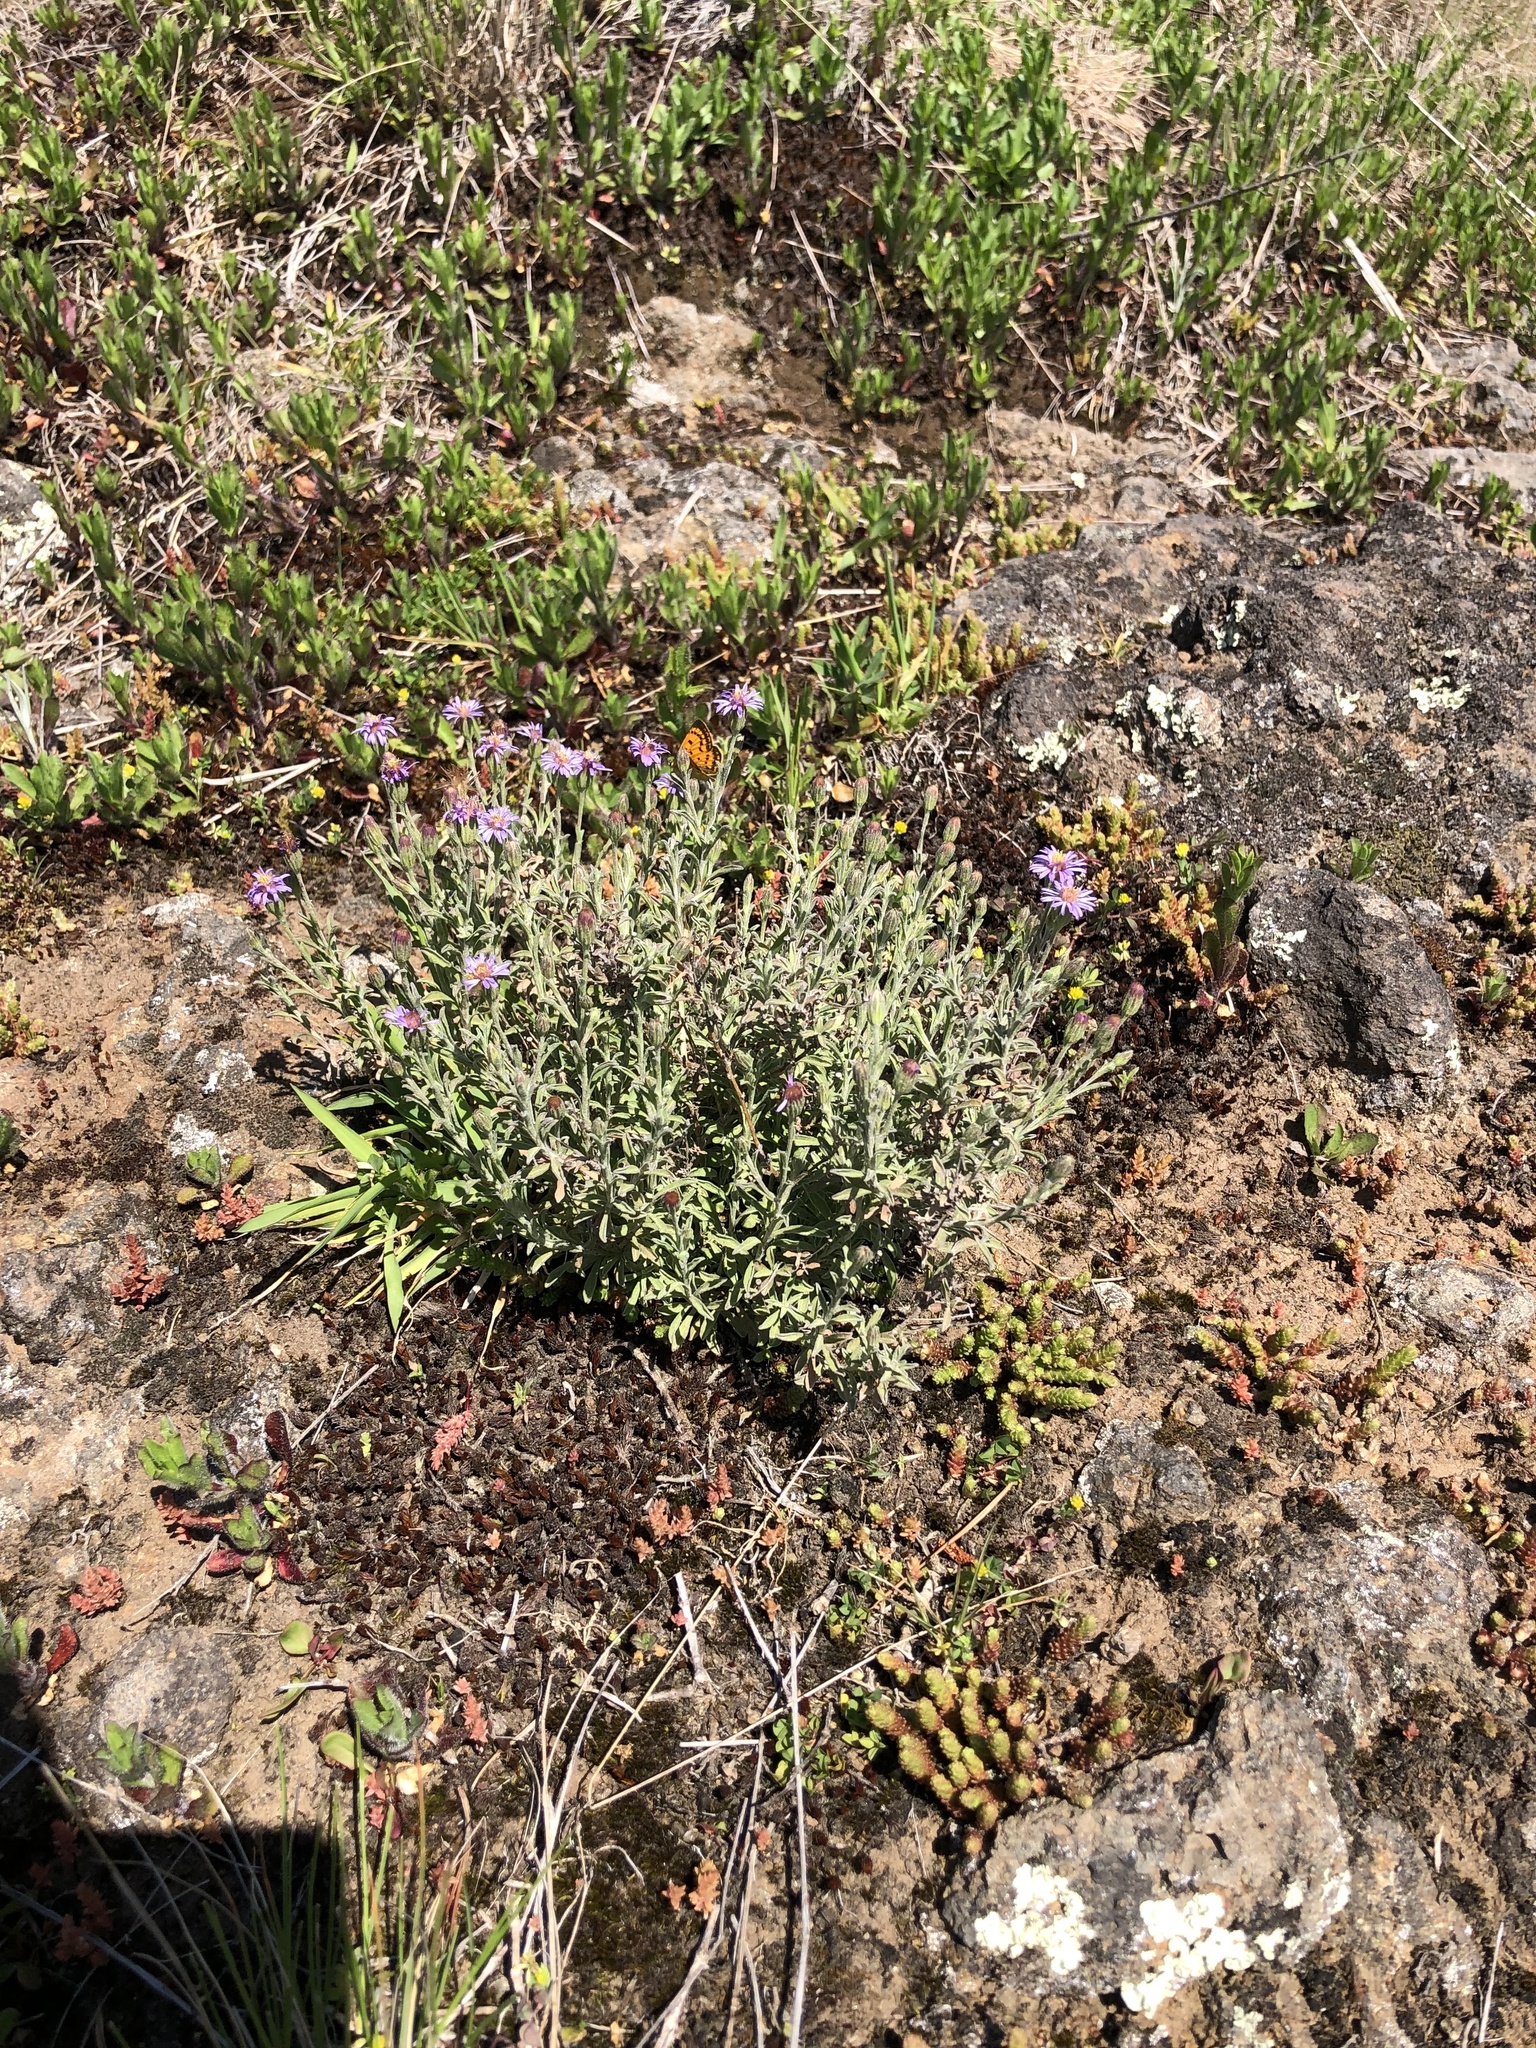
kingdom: Plantae
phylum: Tracheophyta
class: Magnoliopsida
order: Asterales
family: Asteraceae
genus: Vittadinia
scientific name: Vittadinia gracilis
